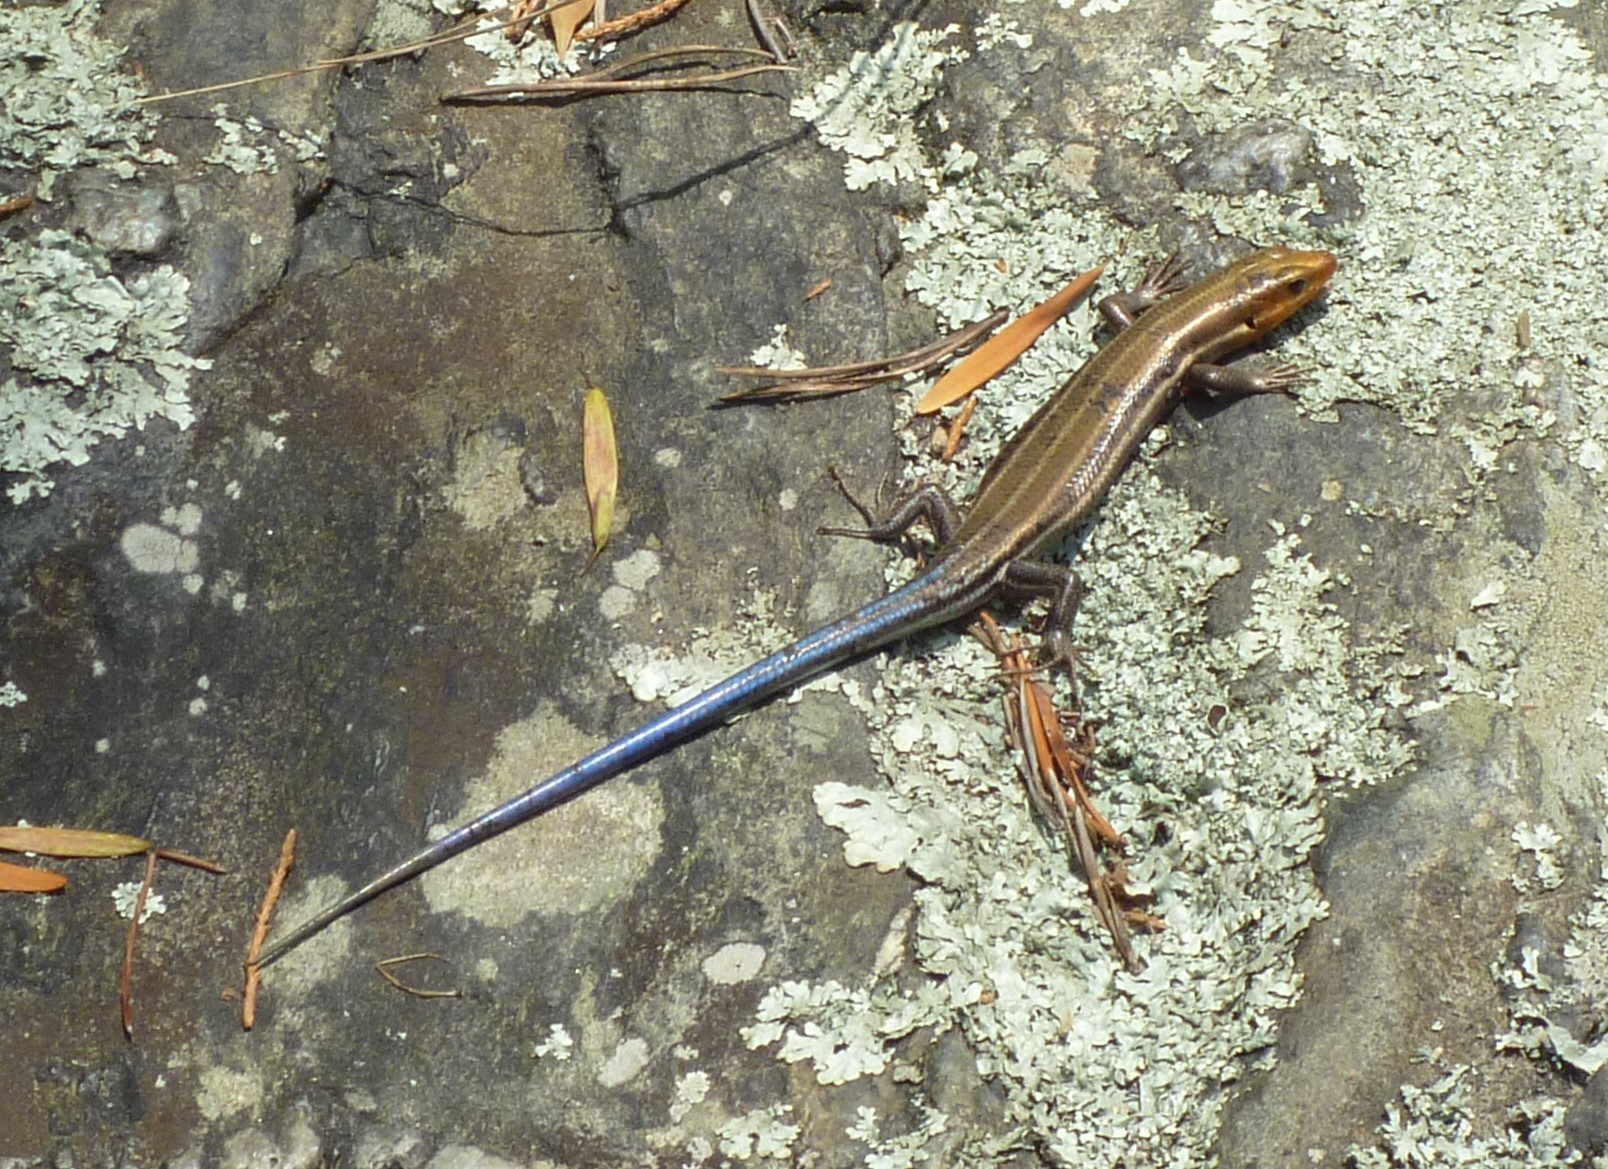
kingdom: Animalia
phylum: Chordata
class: Squamata
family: Scincidae
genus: Plestiodon
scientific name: Plestiodon fasciatus
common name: Five-lined skink
